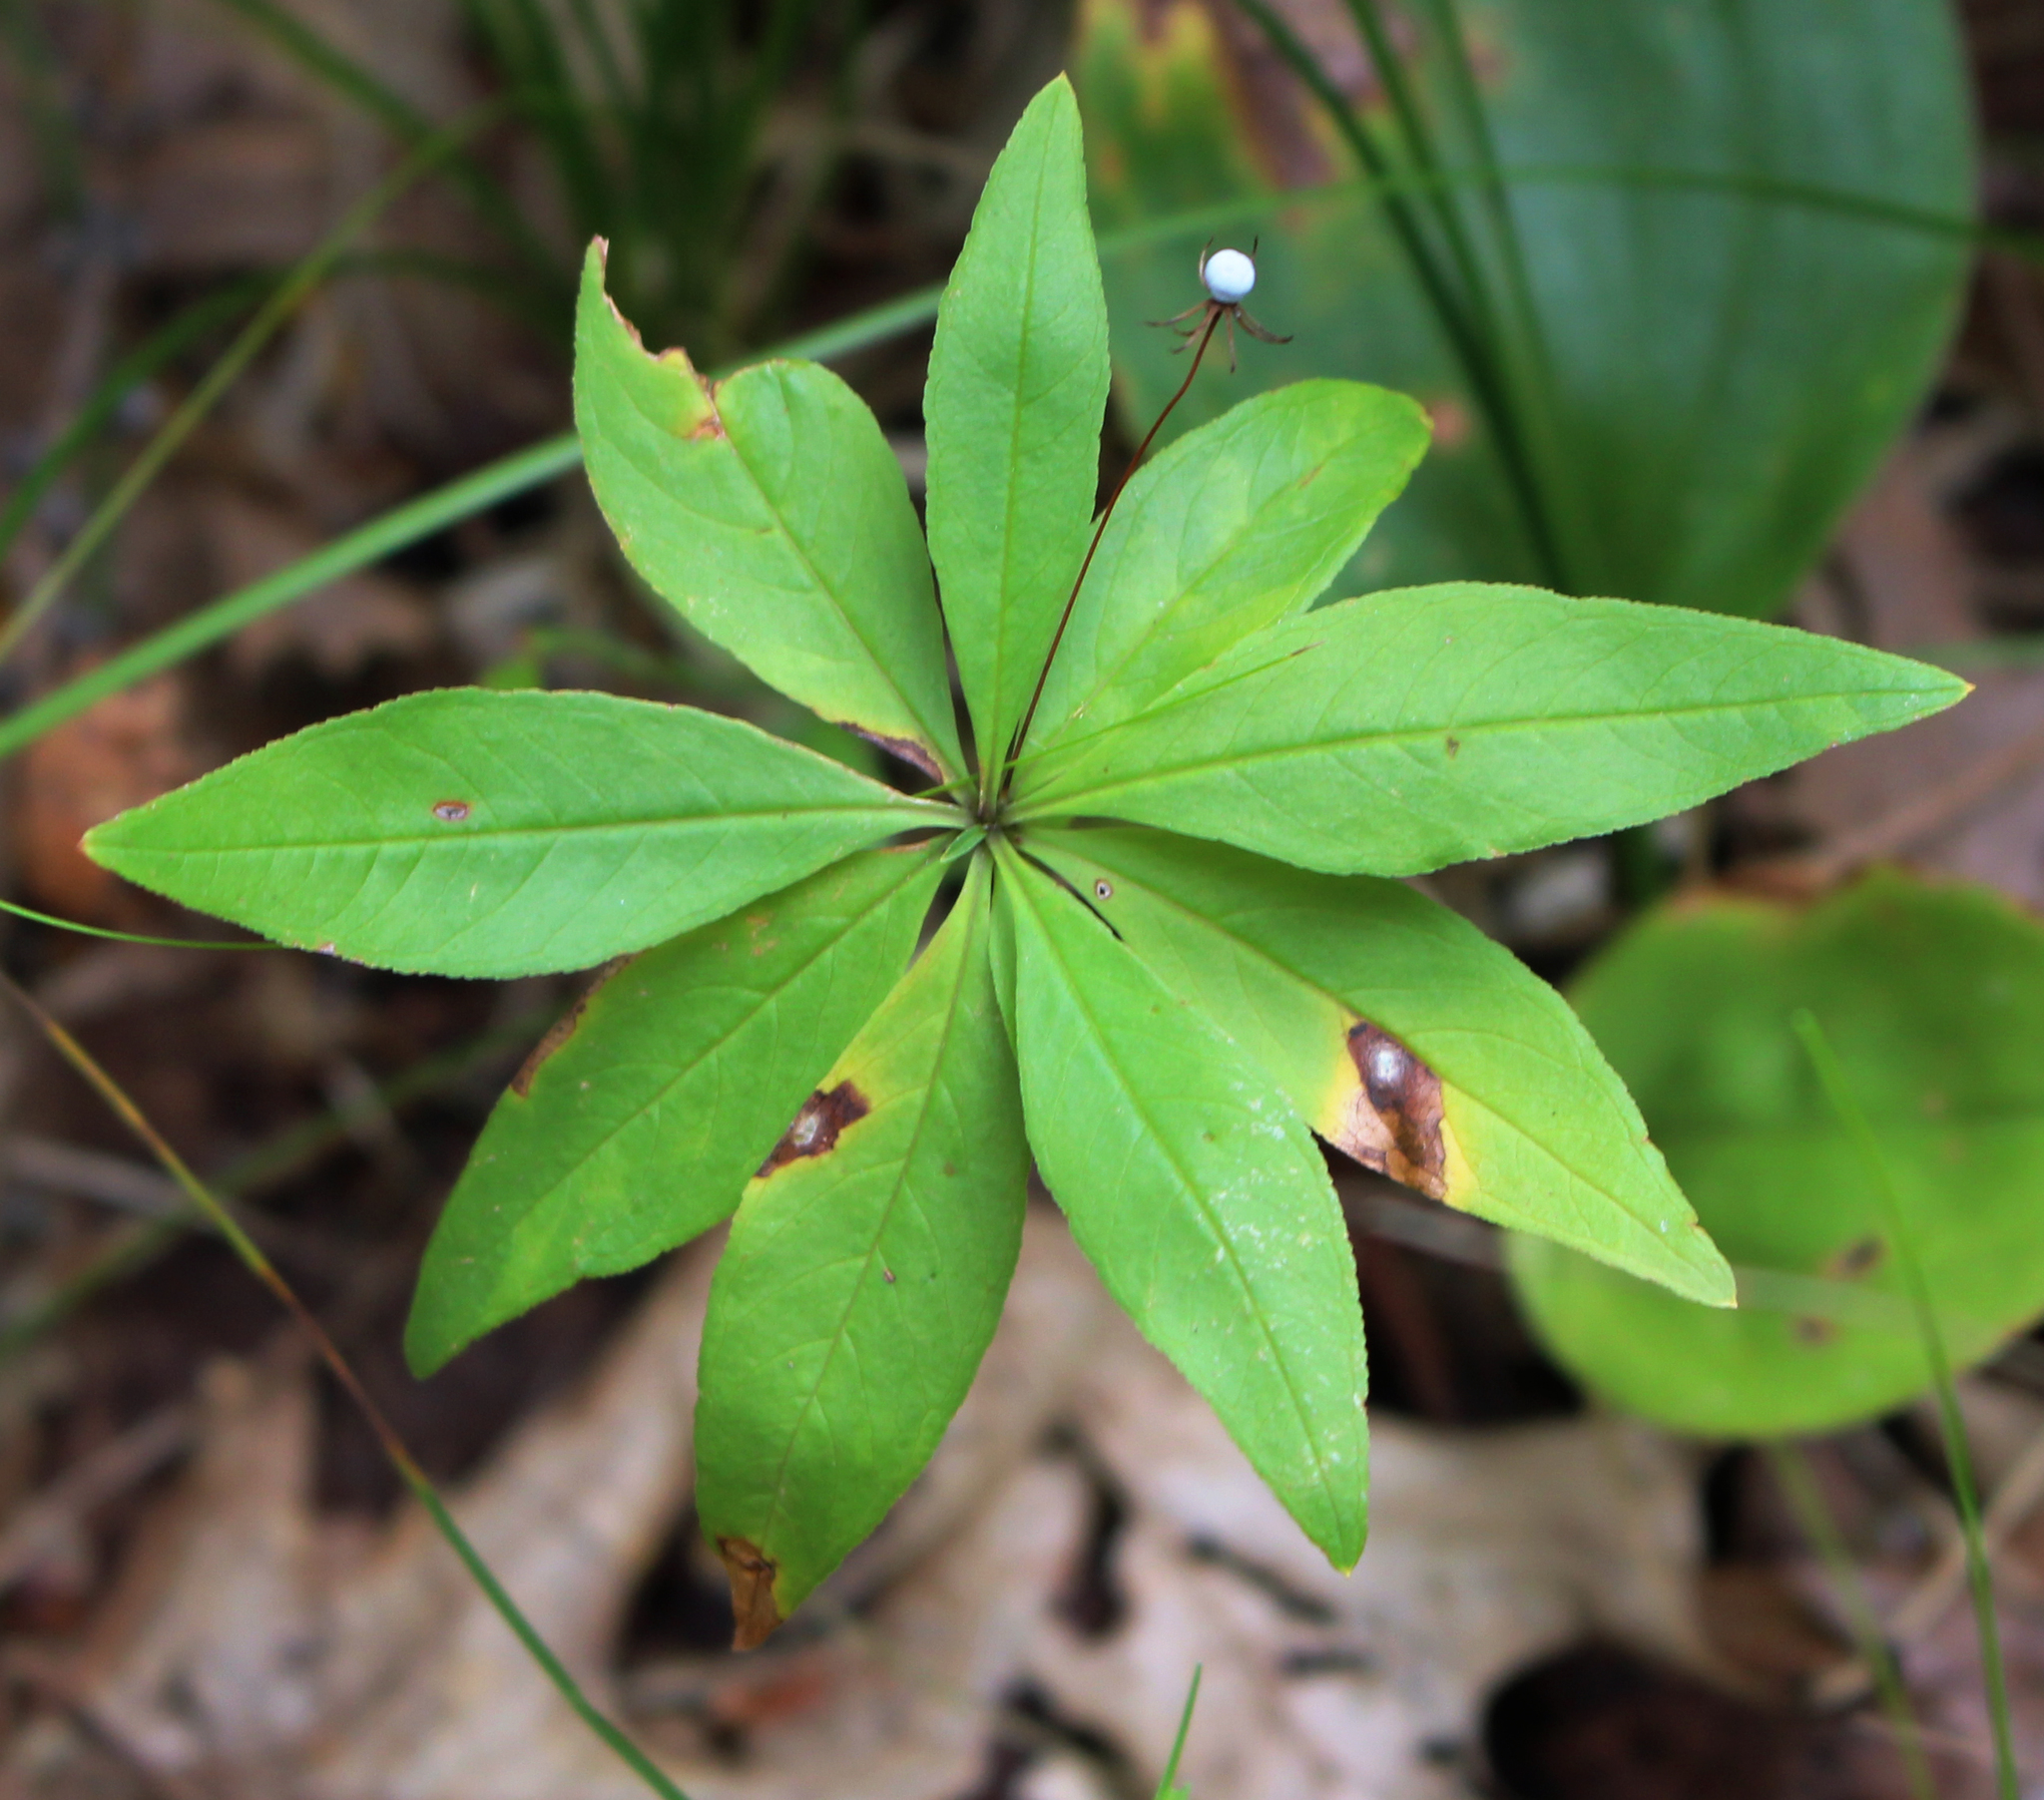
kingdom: Plantae
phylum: Tracheophyta
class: Magnoliopsida
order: Ericales
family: Primulaceae
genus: Lysimachia
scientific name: Lysimachia borealis
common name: American starflower
